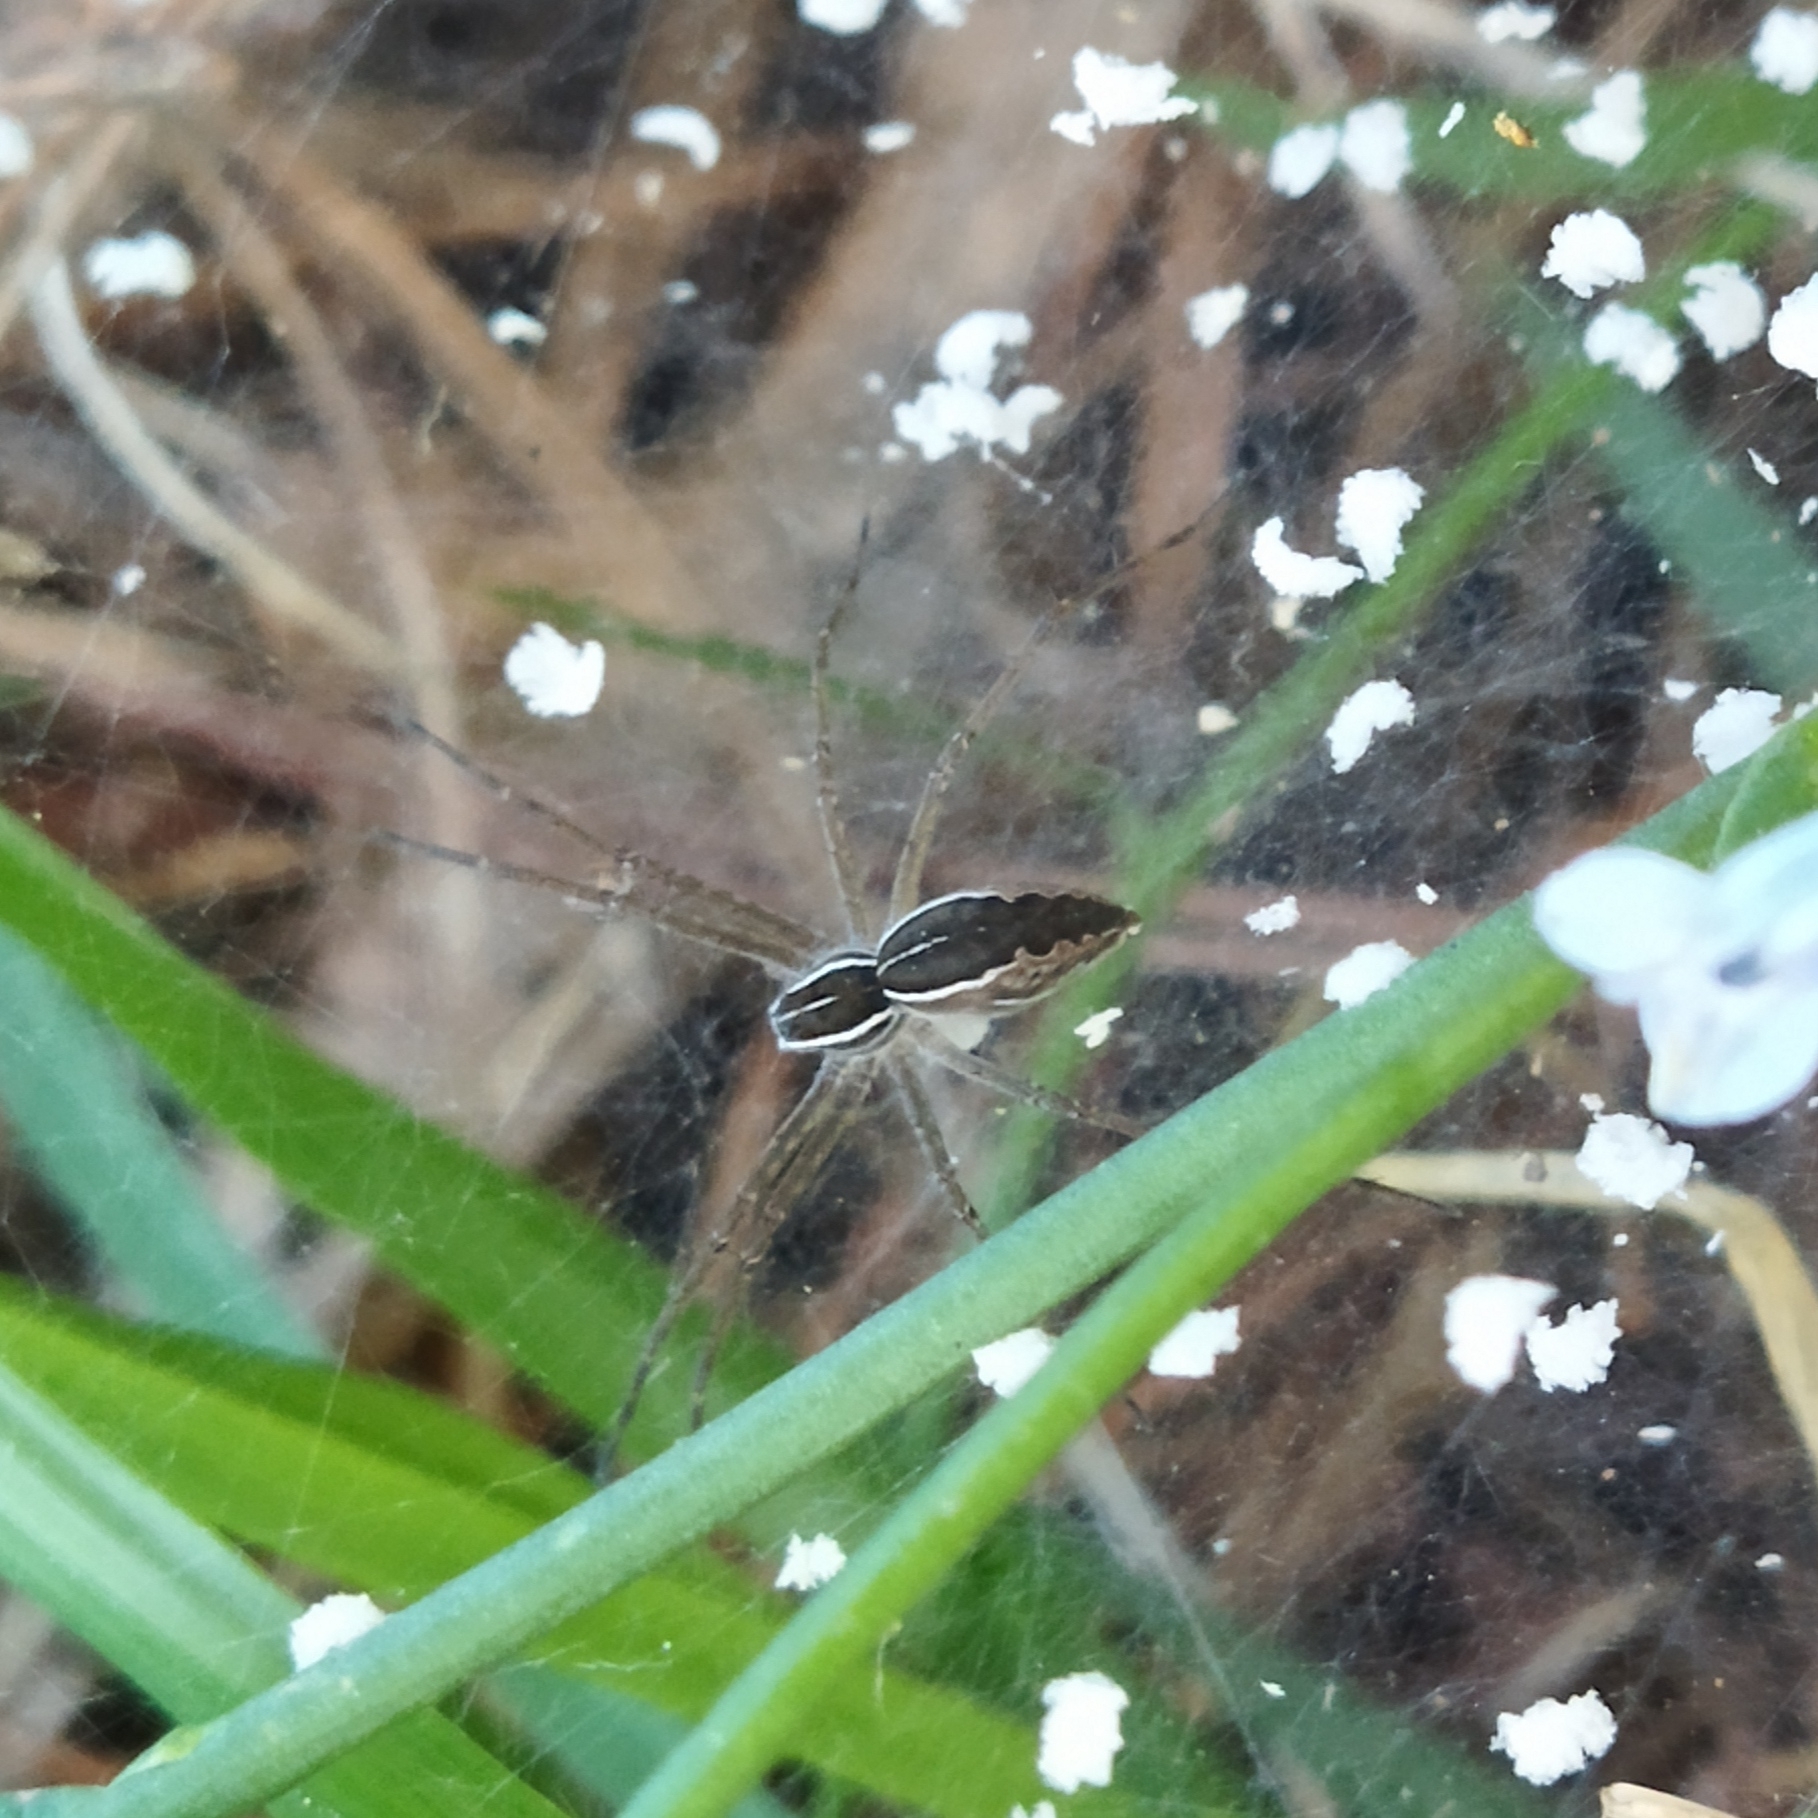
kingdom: Animalia
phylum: Arthropoda
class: Arachnida
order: Araneae
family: Pisauridae
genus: Euprosthenopsis
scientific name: Euprosthenopsis pulchella
